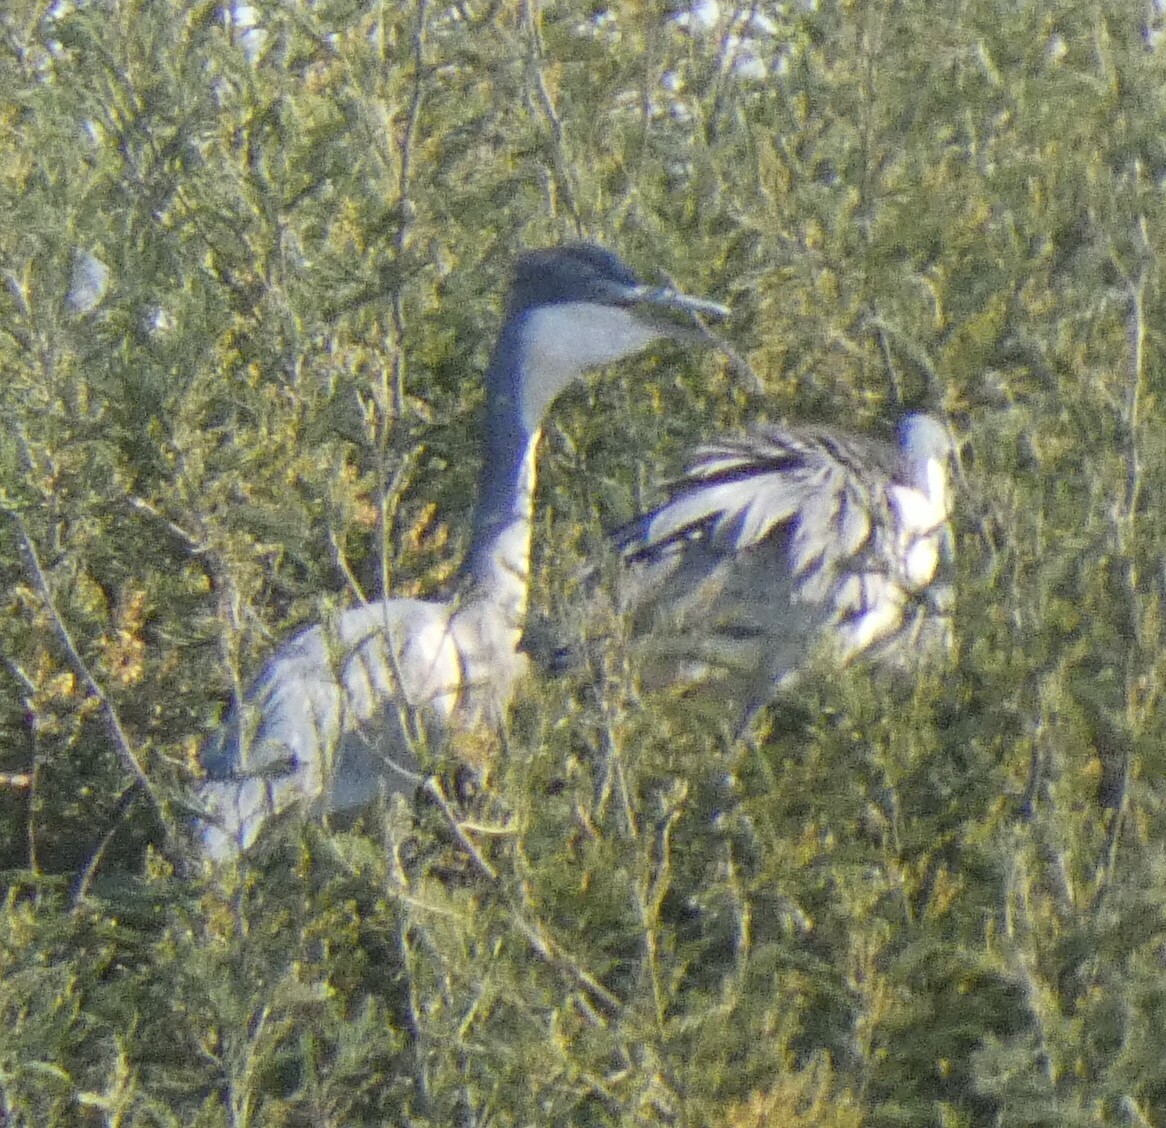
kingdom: Animalia
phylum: Chordata
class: Aves
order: Pelecaniformes
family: Ardeidae
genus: Ardea
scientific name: Ardea melanocephala
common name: Black-headed heron
